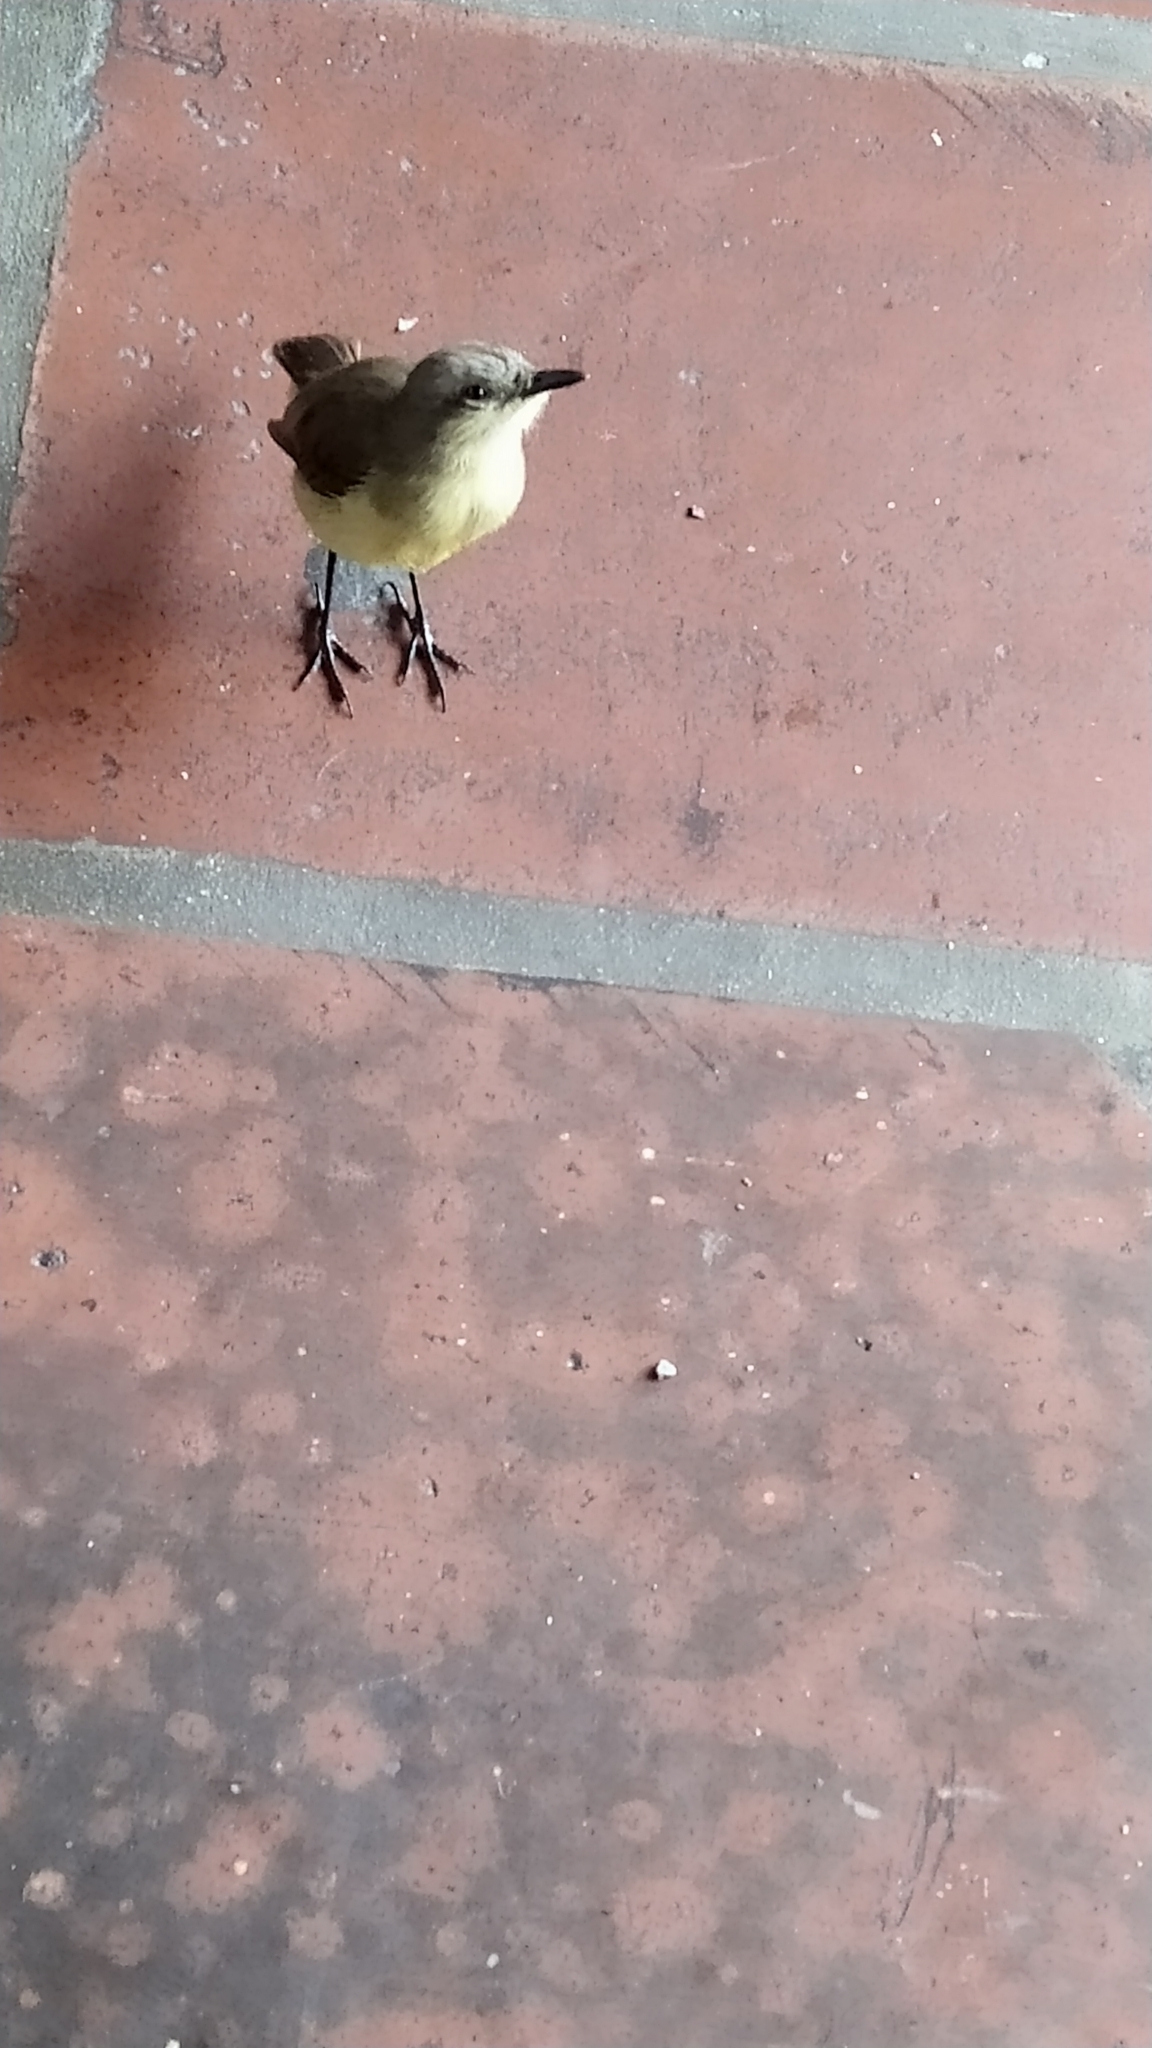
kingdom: Animalia
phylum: Chordata
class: Aves
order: Passeriformes
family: Tyrannidae
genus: Machetornis
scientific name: Machetornis rixosa
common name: Cattle tyrant
